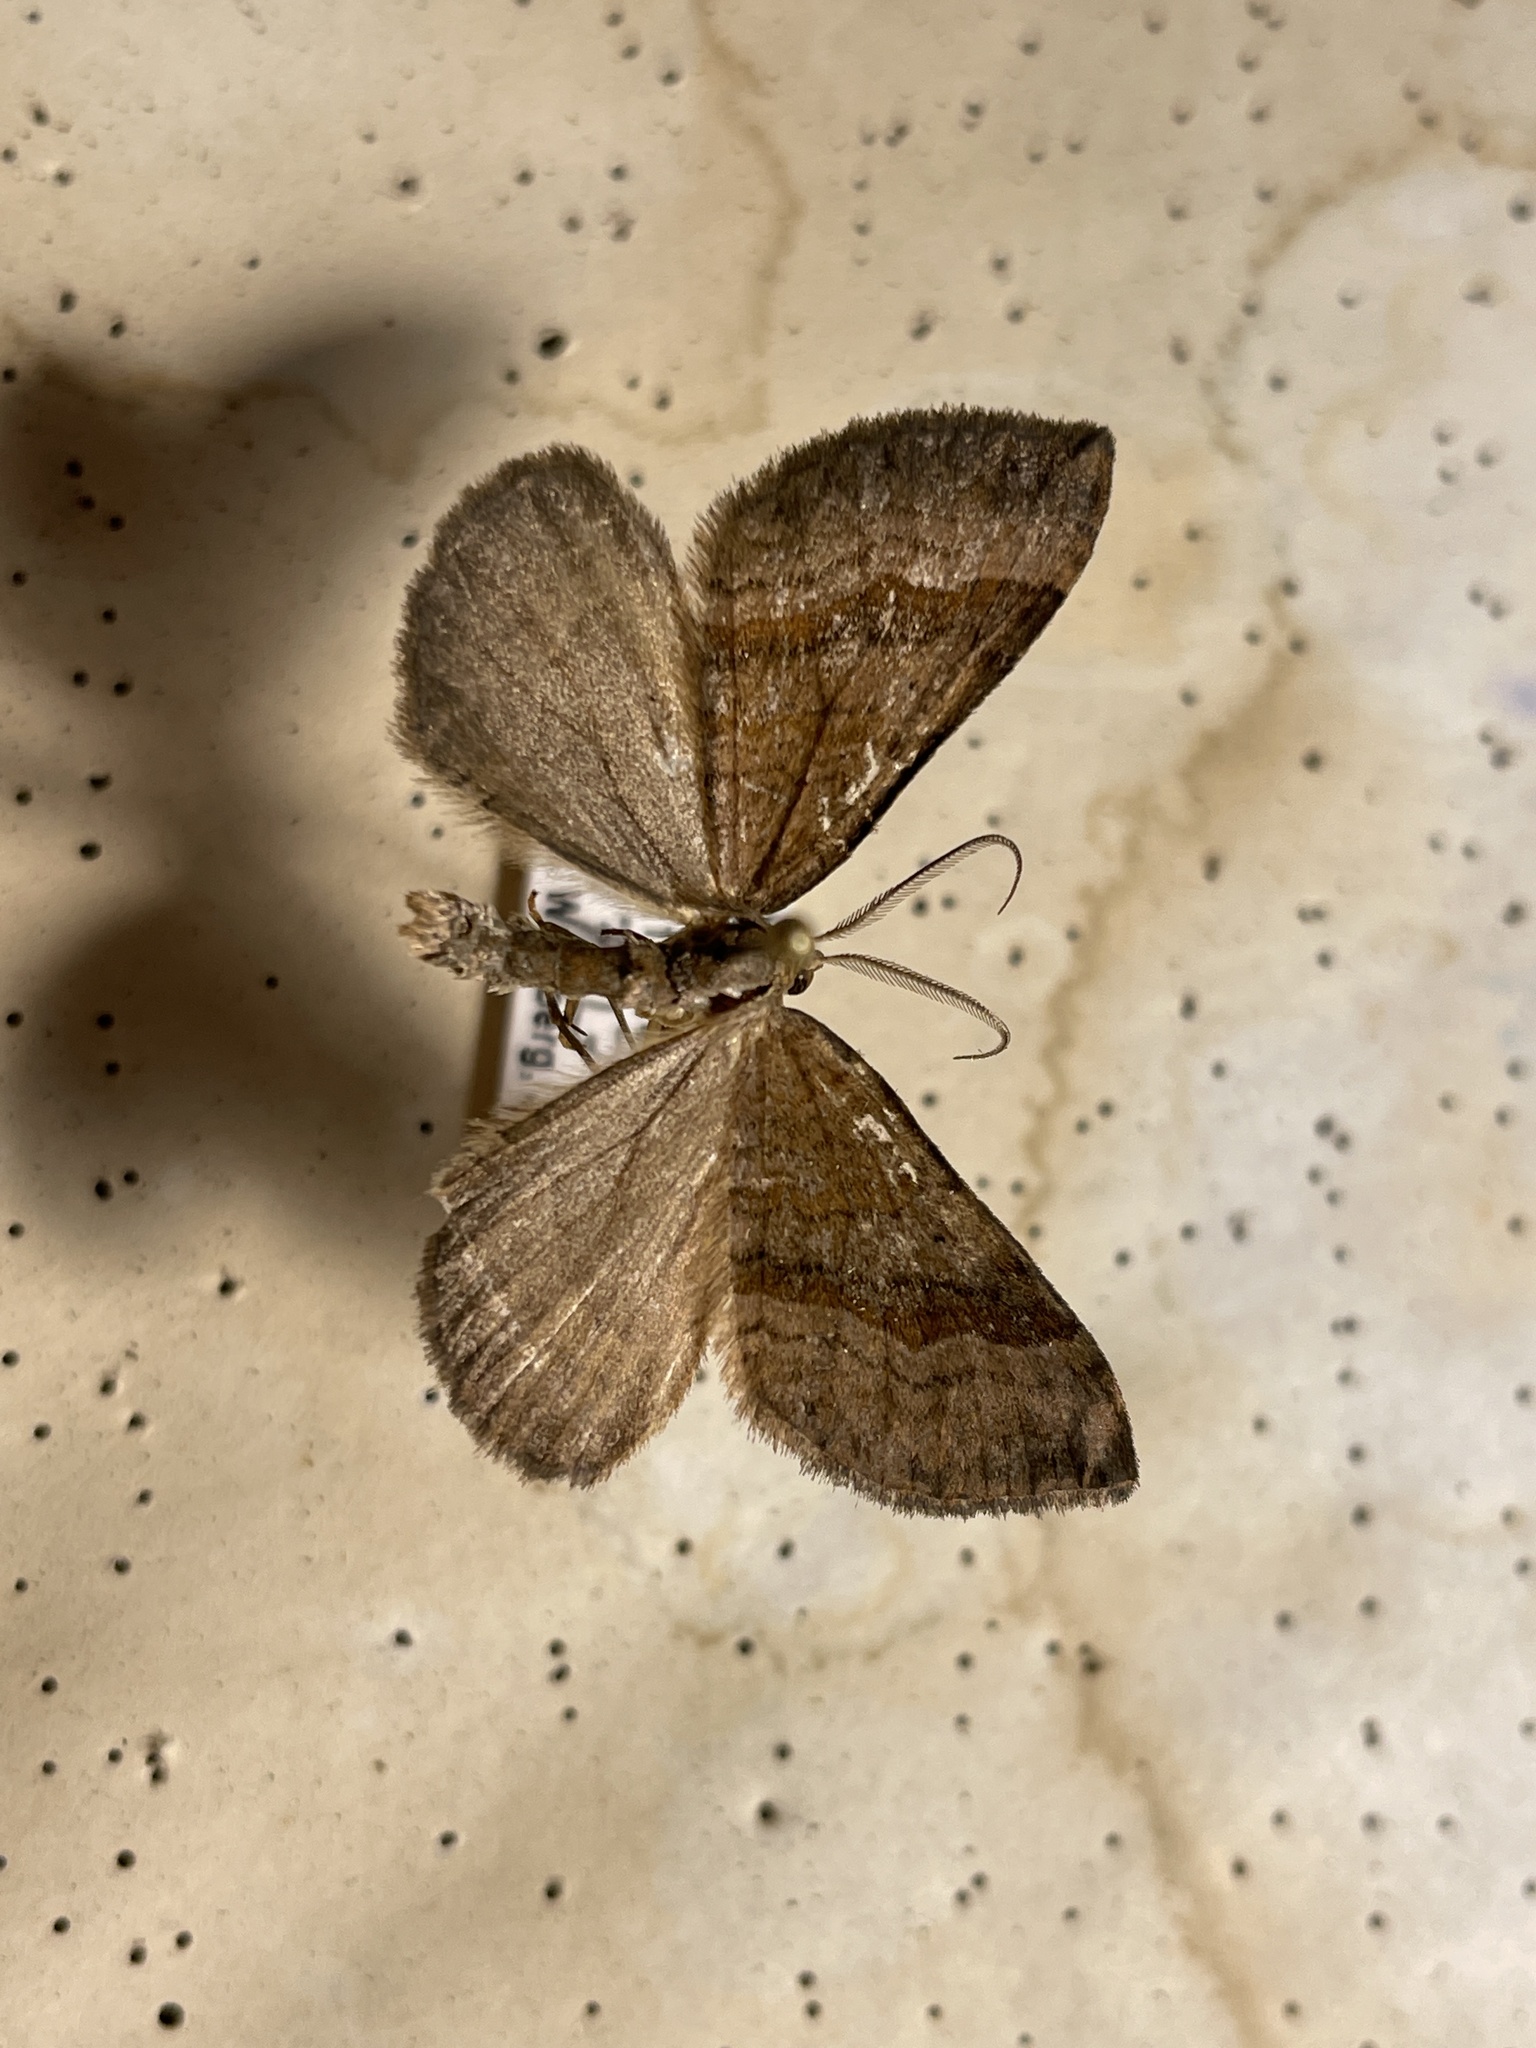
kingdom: Animalia
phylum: Arthropoda
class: Insecta
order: Lepidoptera
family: Geometridae
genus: Scotopteryx
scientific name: Scotopteryx chenopodiata
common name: Shaded broad-bar
